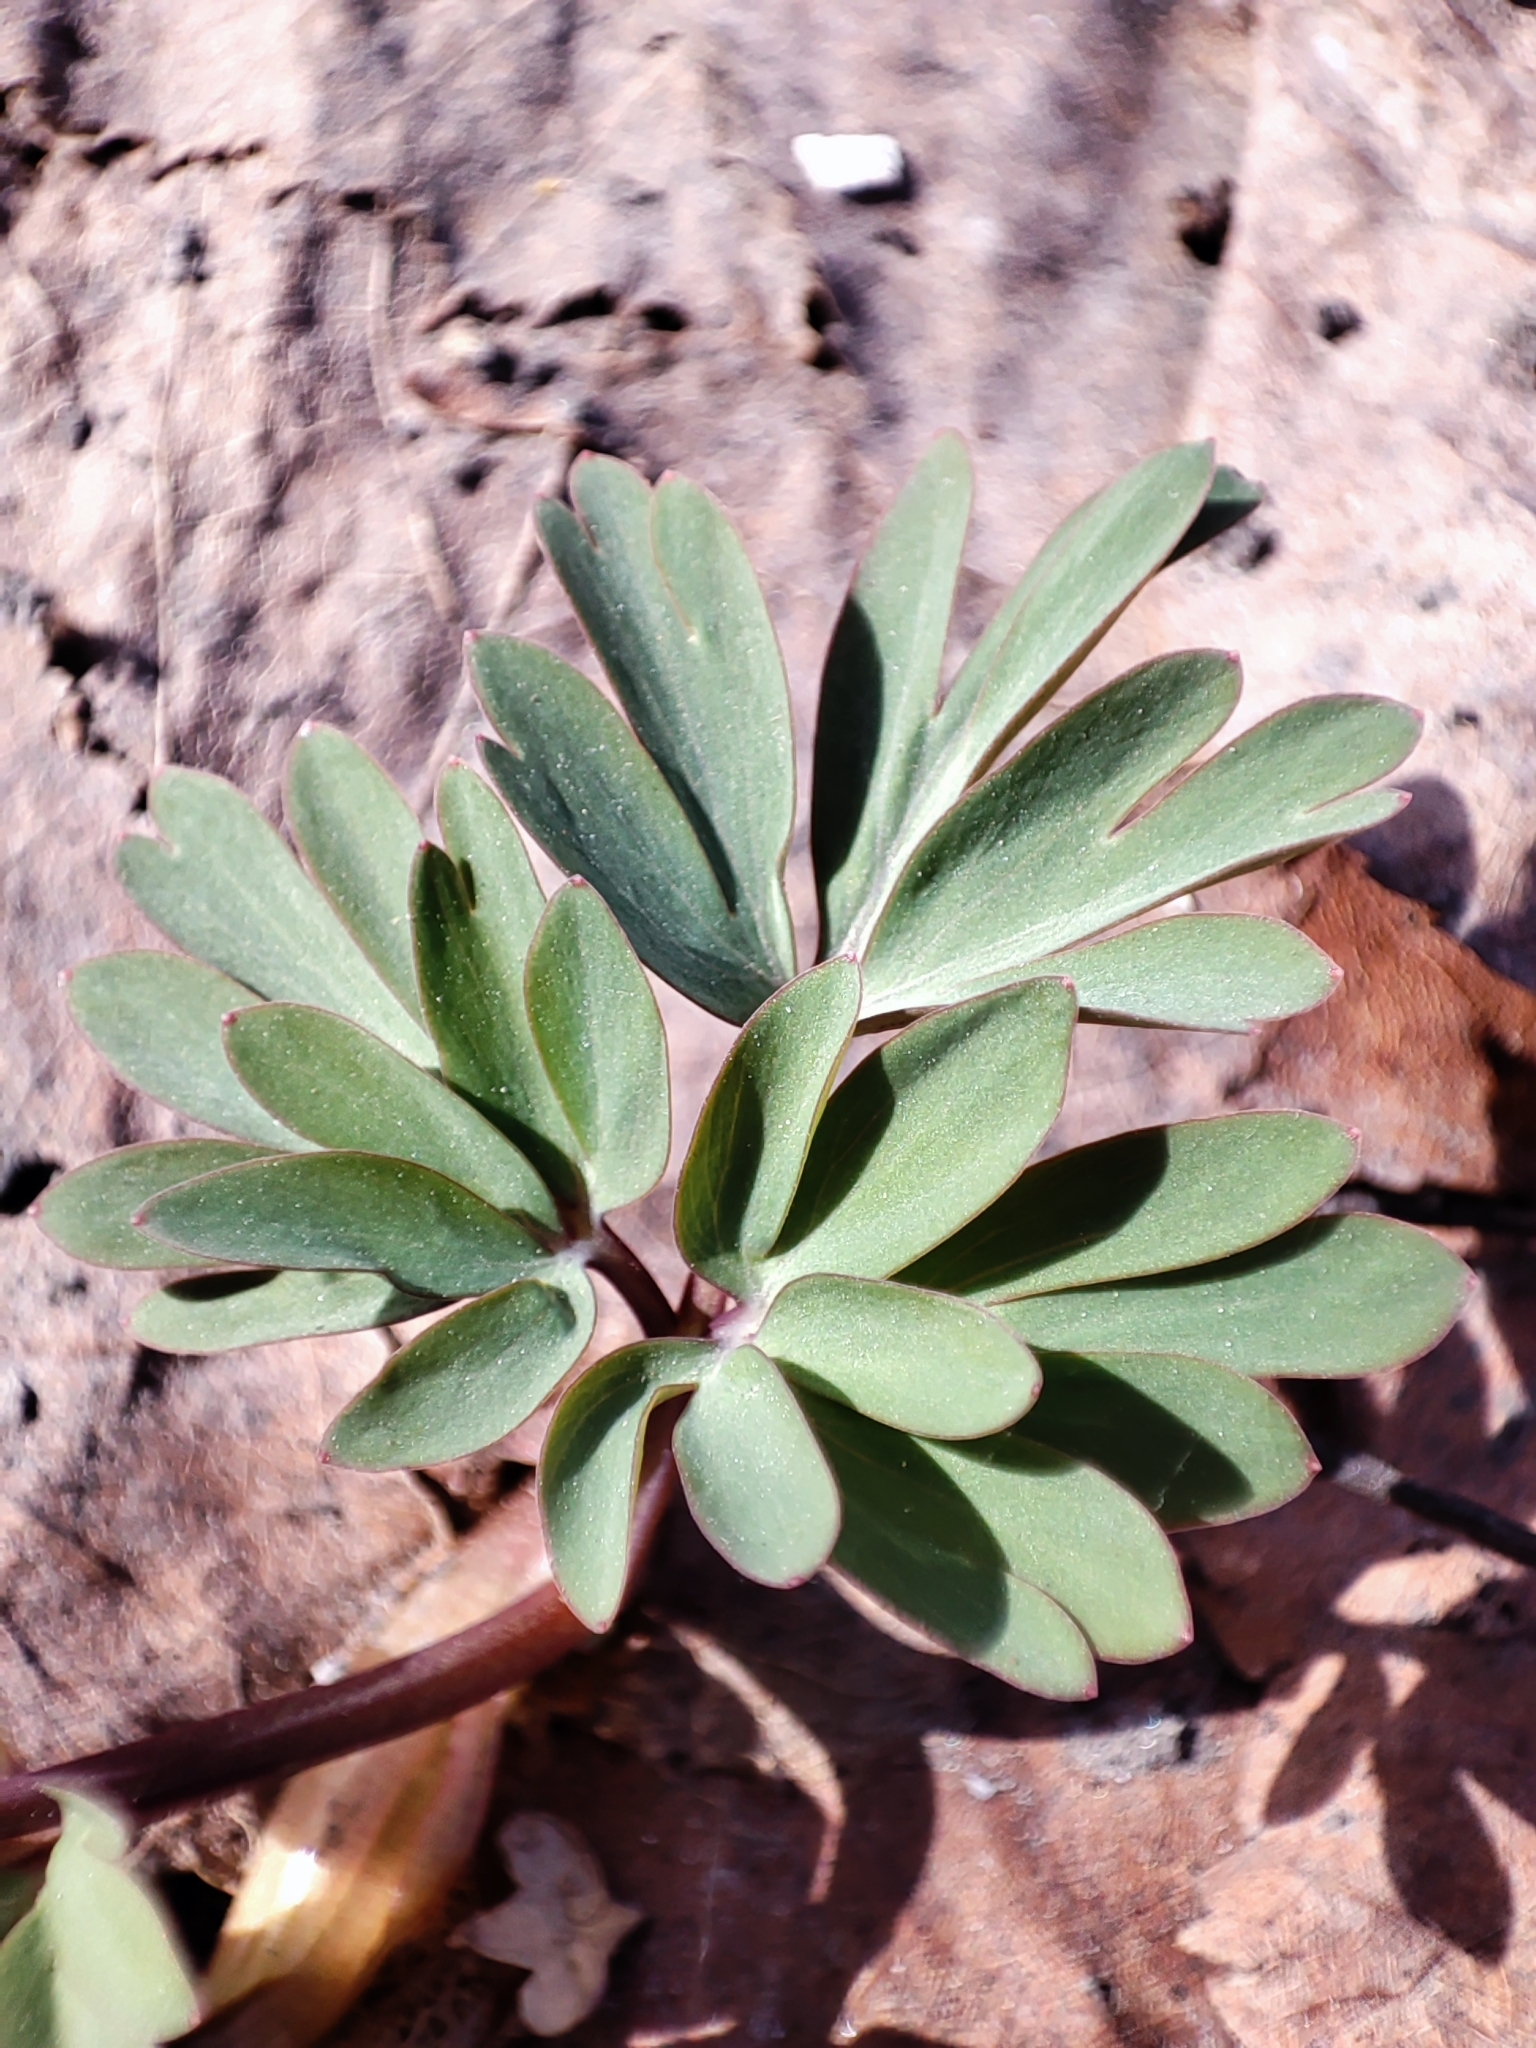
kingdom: Plantae
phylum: Tracheophyta
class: Magnoliopsida
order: Ranunculales
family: Papaveraceae
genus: Corydalis
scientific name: Corydalis solida
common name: Bird-in-a-bush
